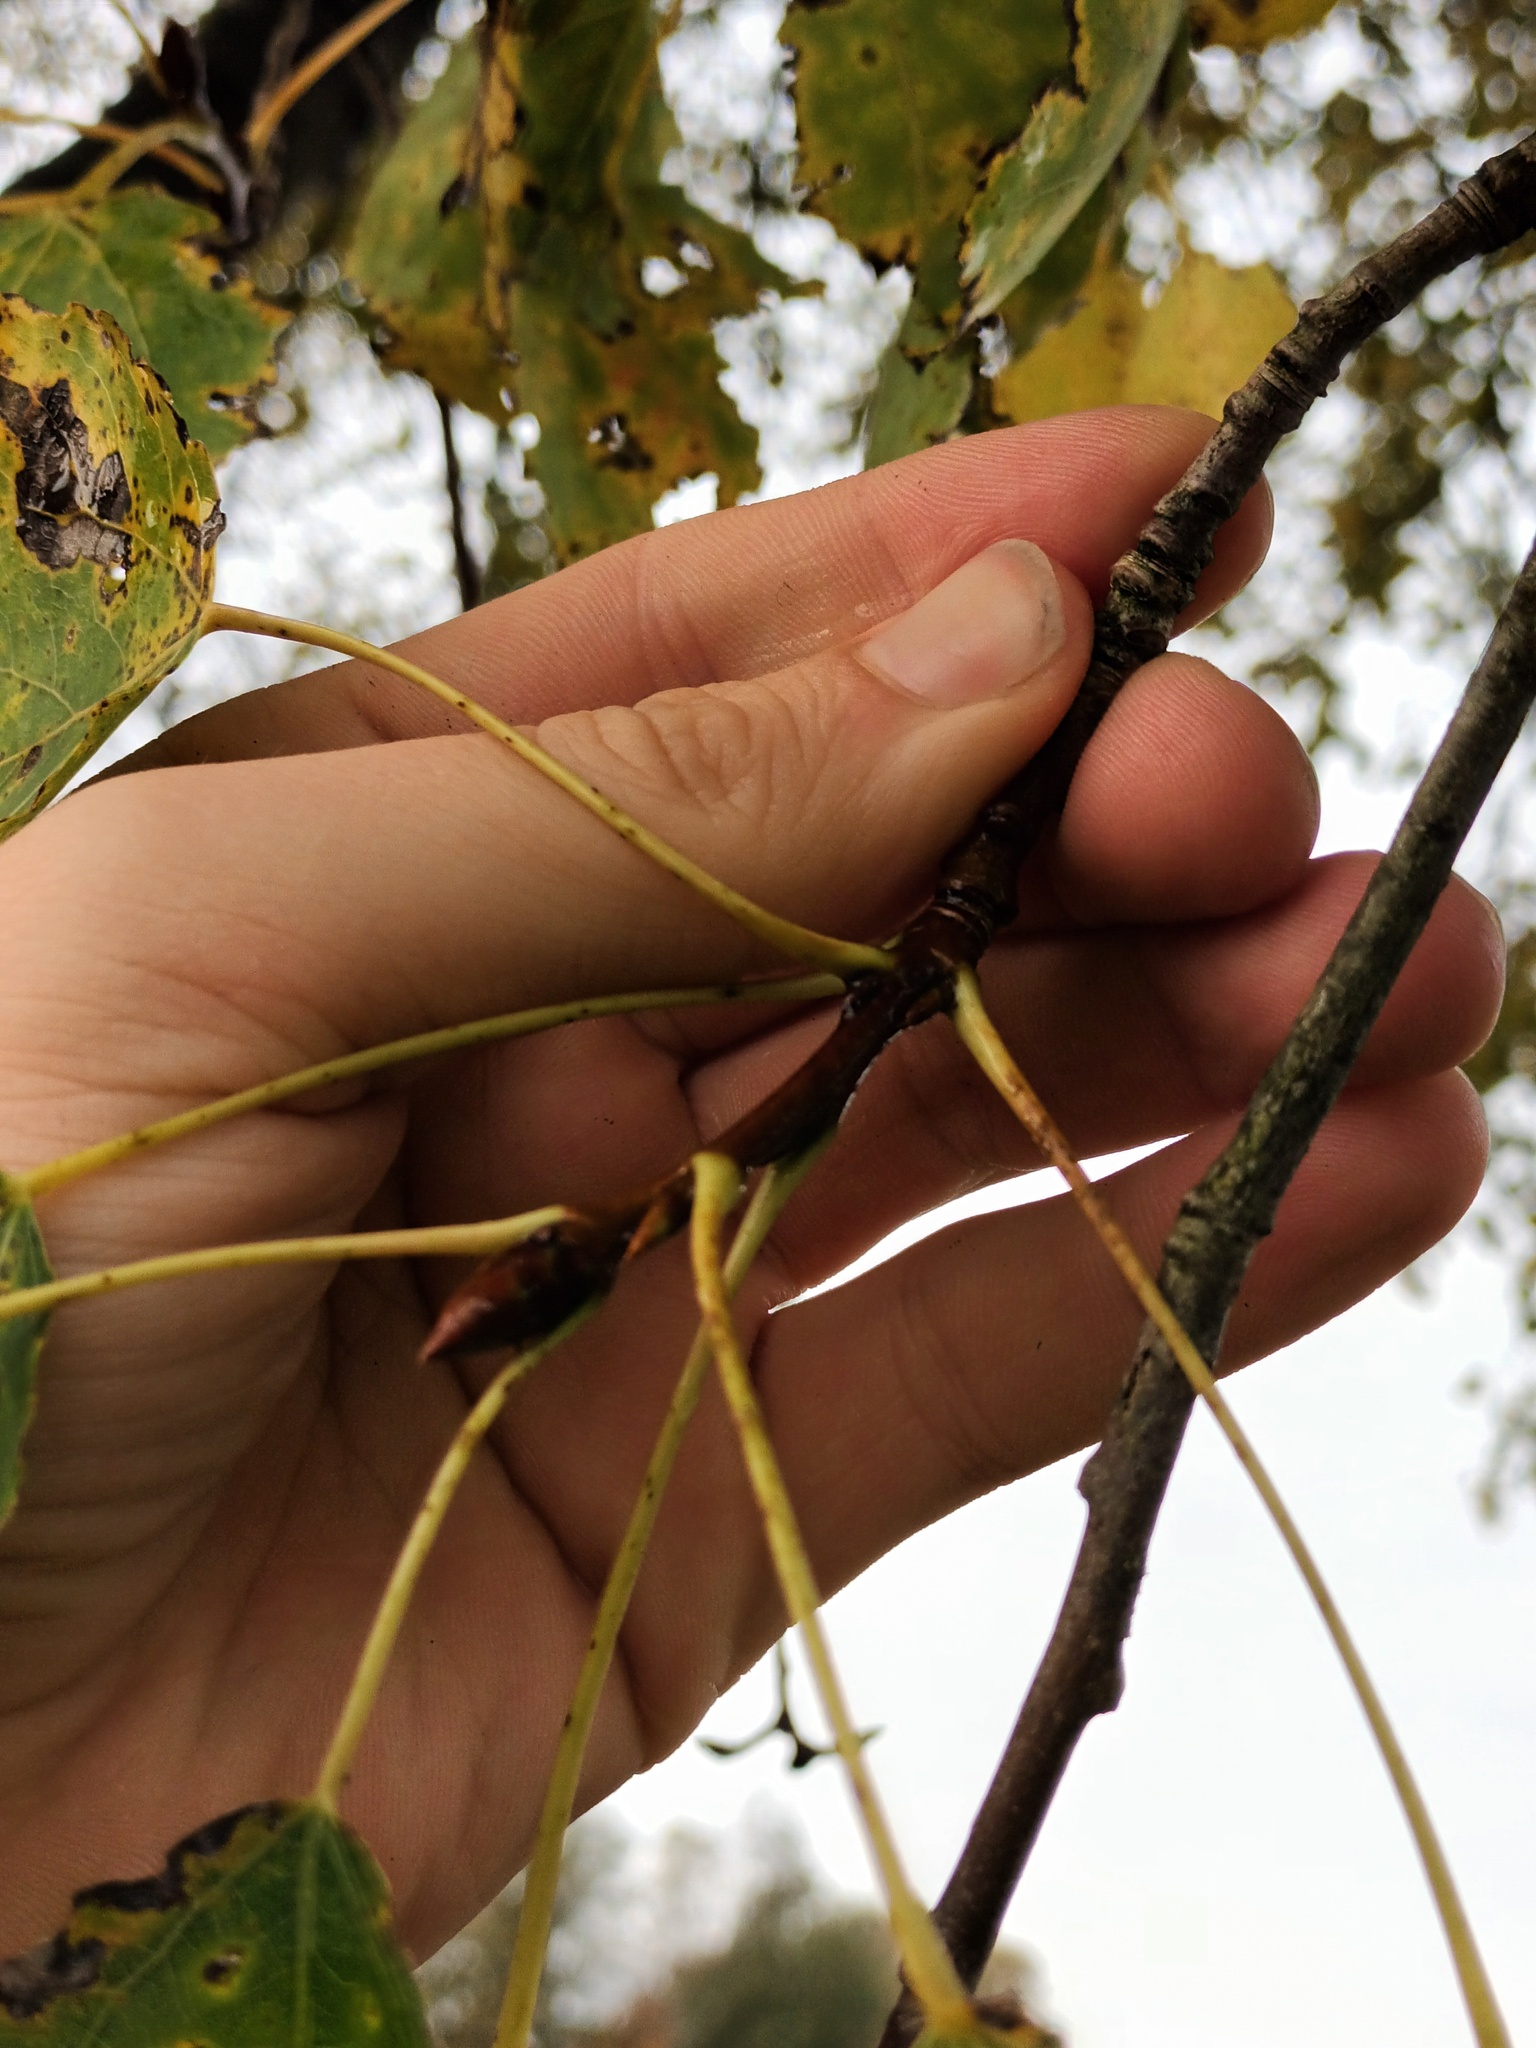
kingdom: Plantae
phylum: Tracheophyta
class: Magnoliopsida
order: Malpighiales
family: Salicaceae
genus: Populus
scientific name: Populus tremula
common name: European aspen
